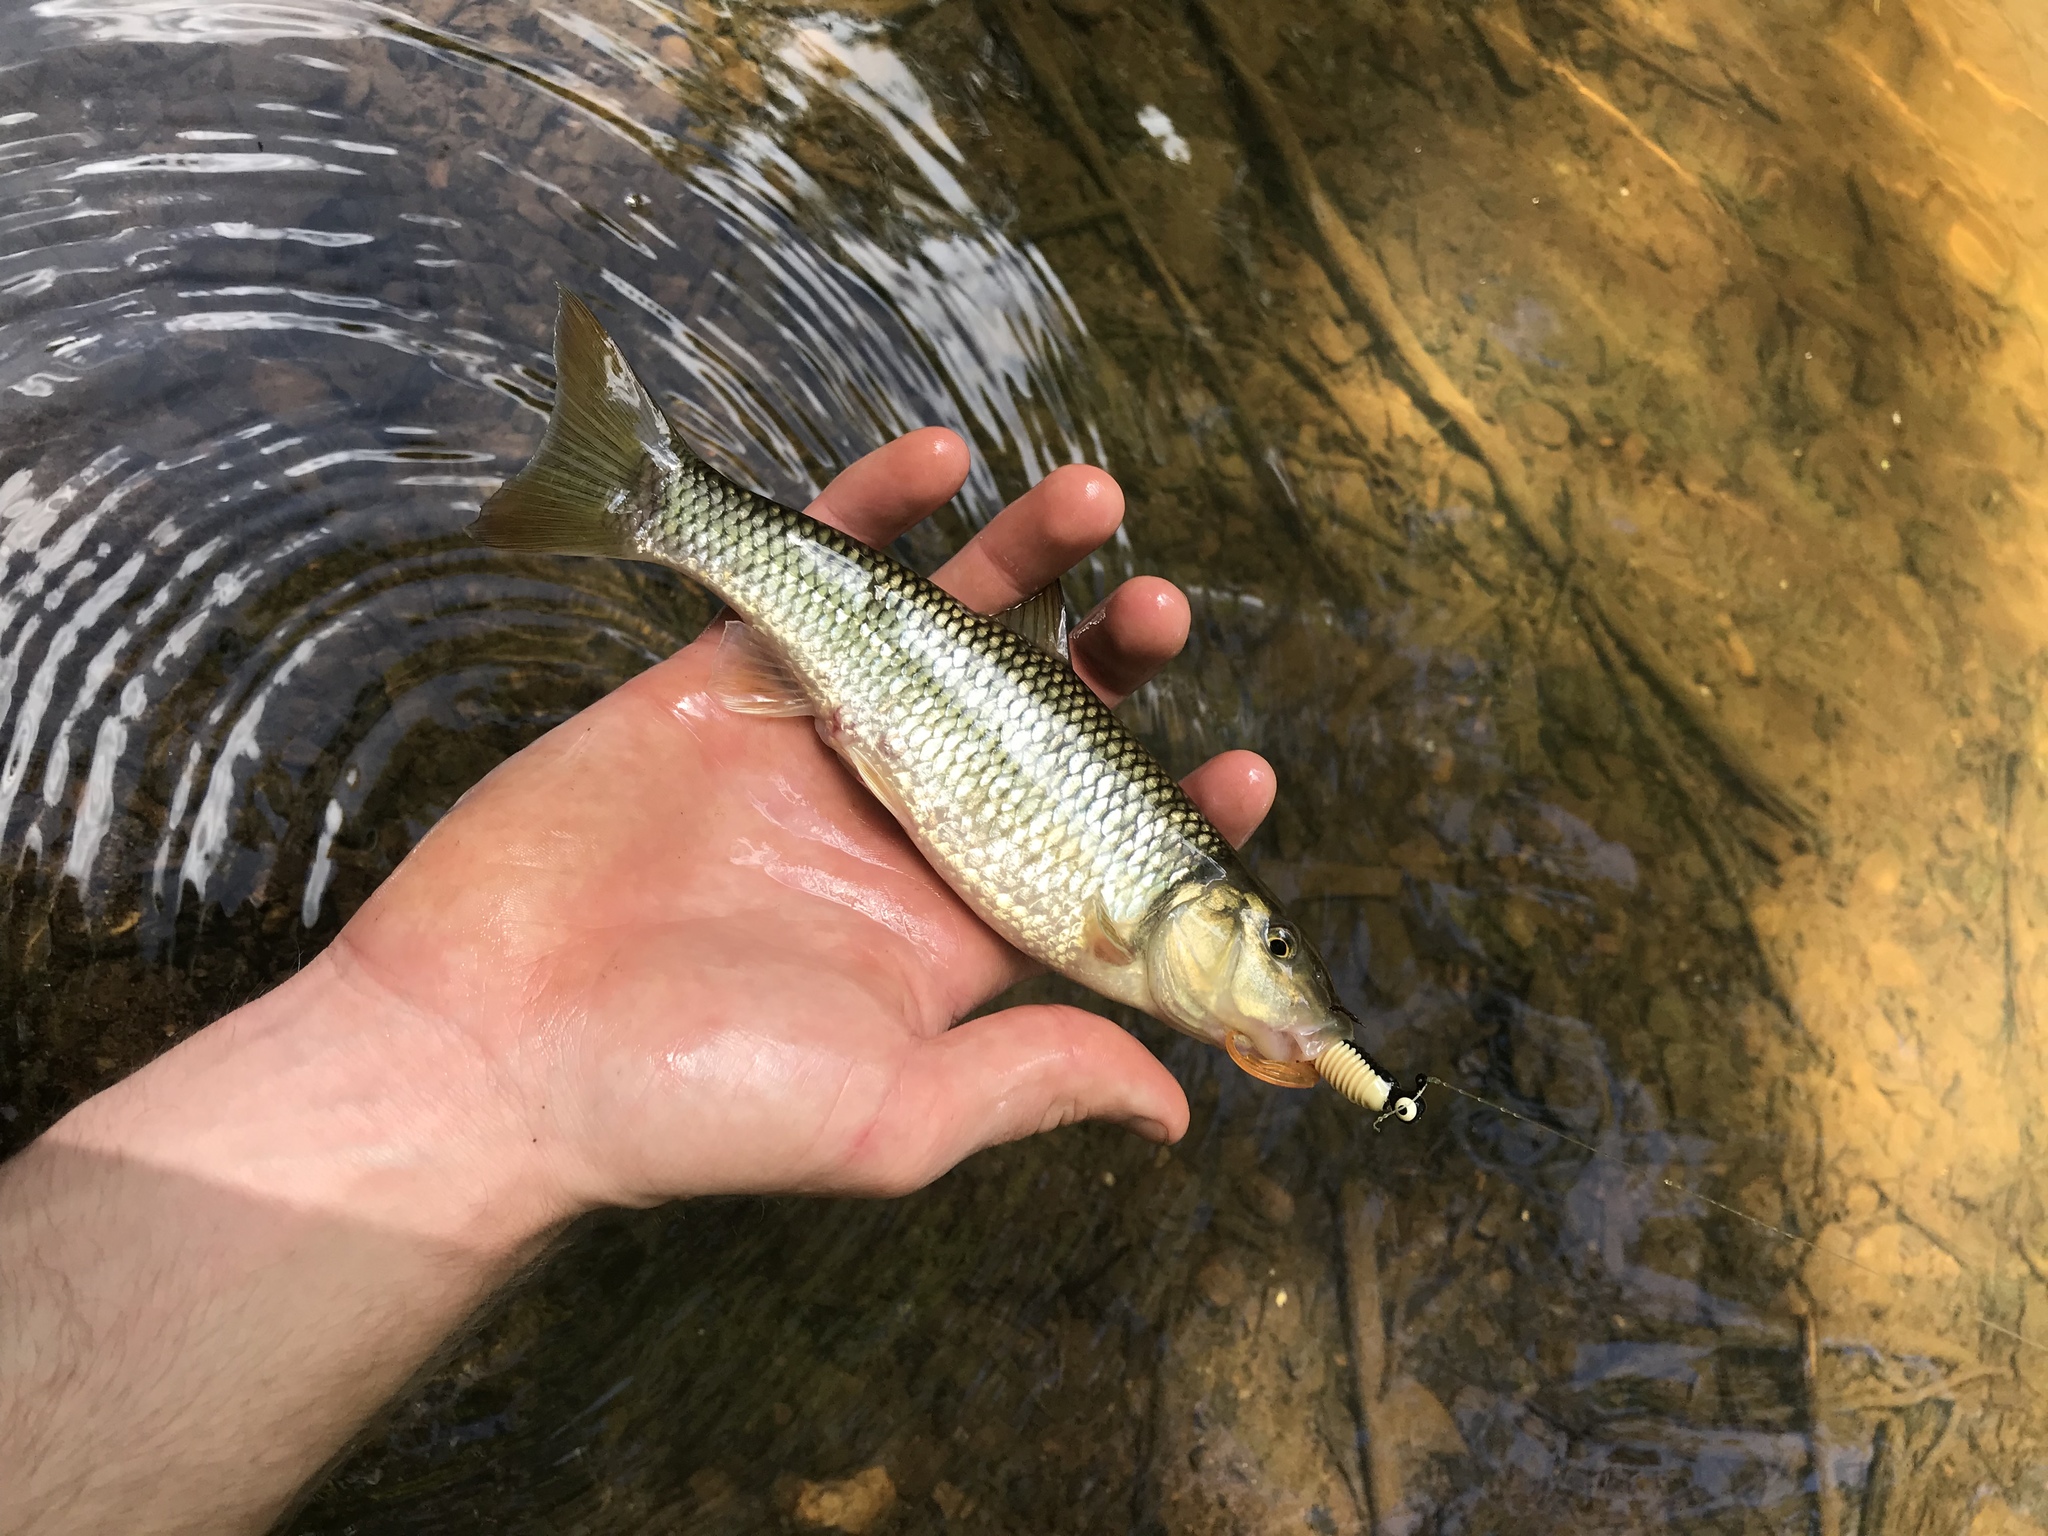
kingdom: Animalia
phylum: Chordata
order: Cypriniformes
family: Cyprinidae
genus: Nocomis
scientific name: Nocomis raneyi
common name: Bull chub
